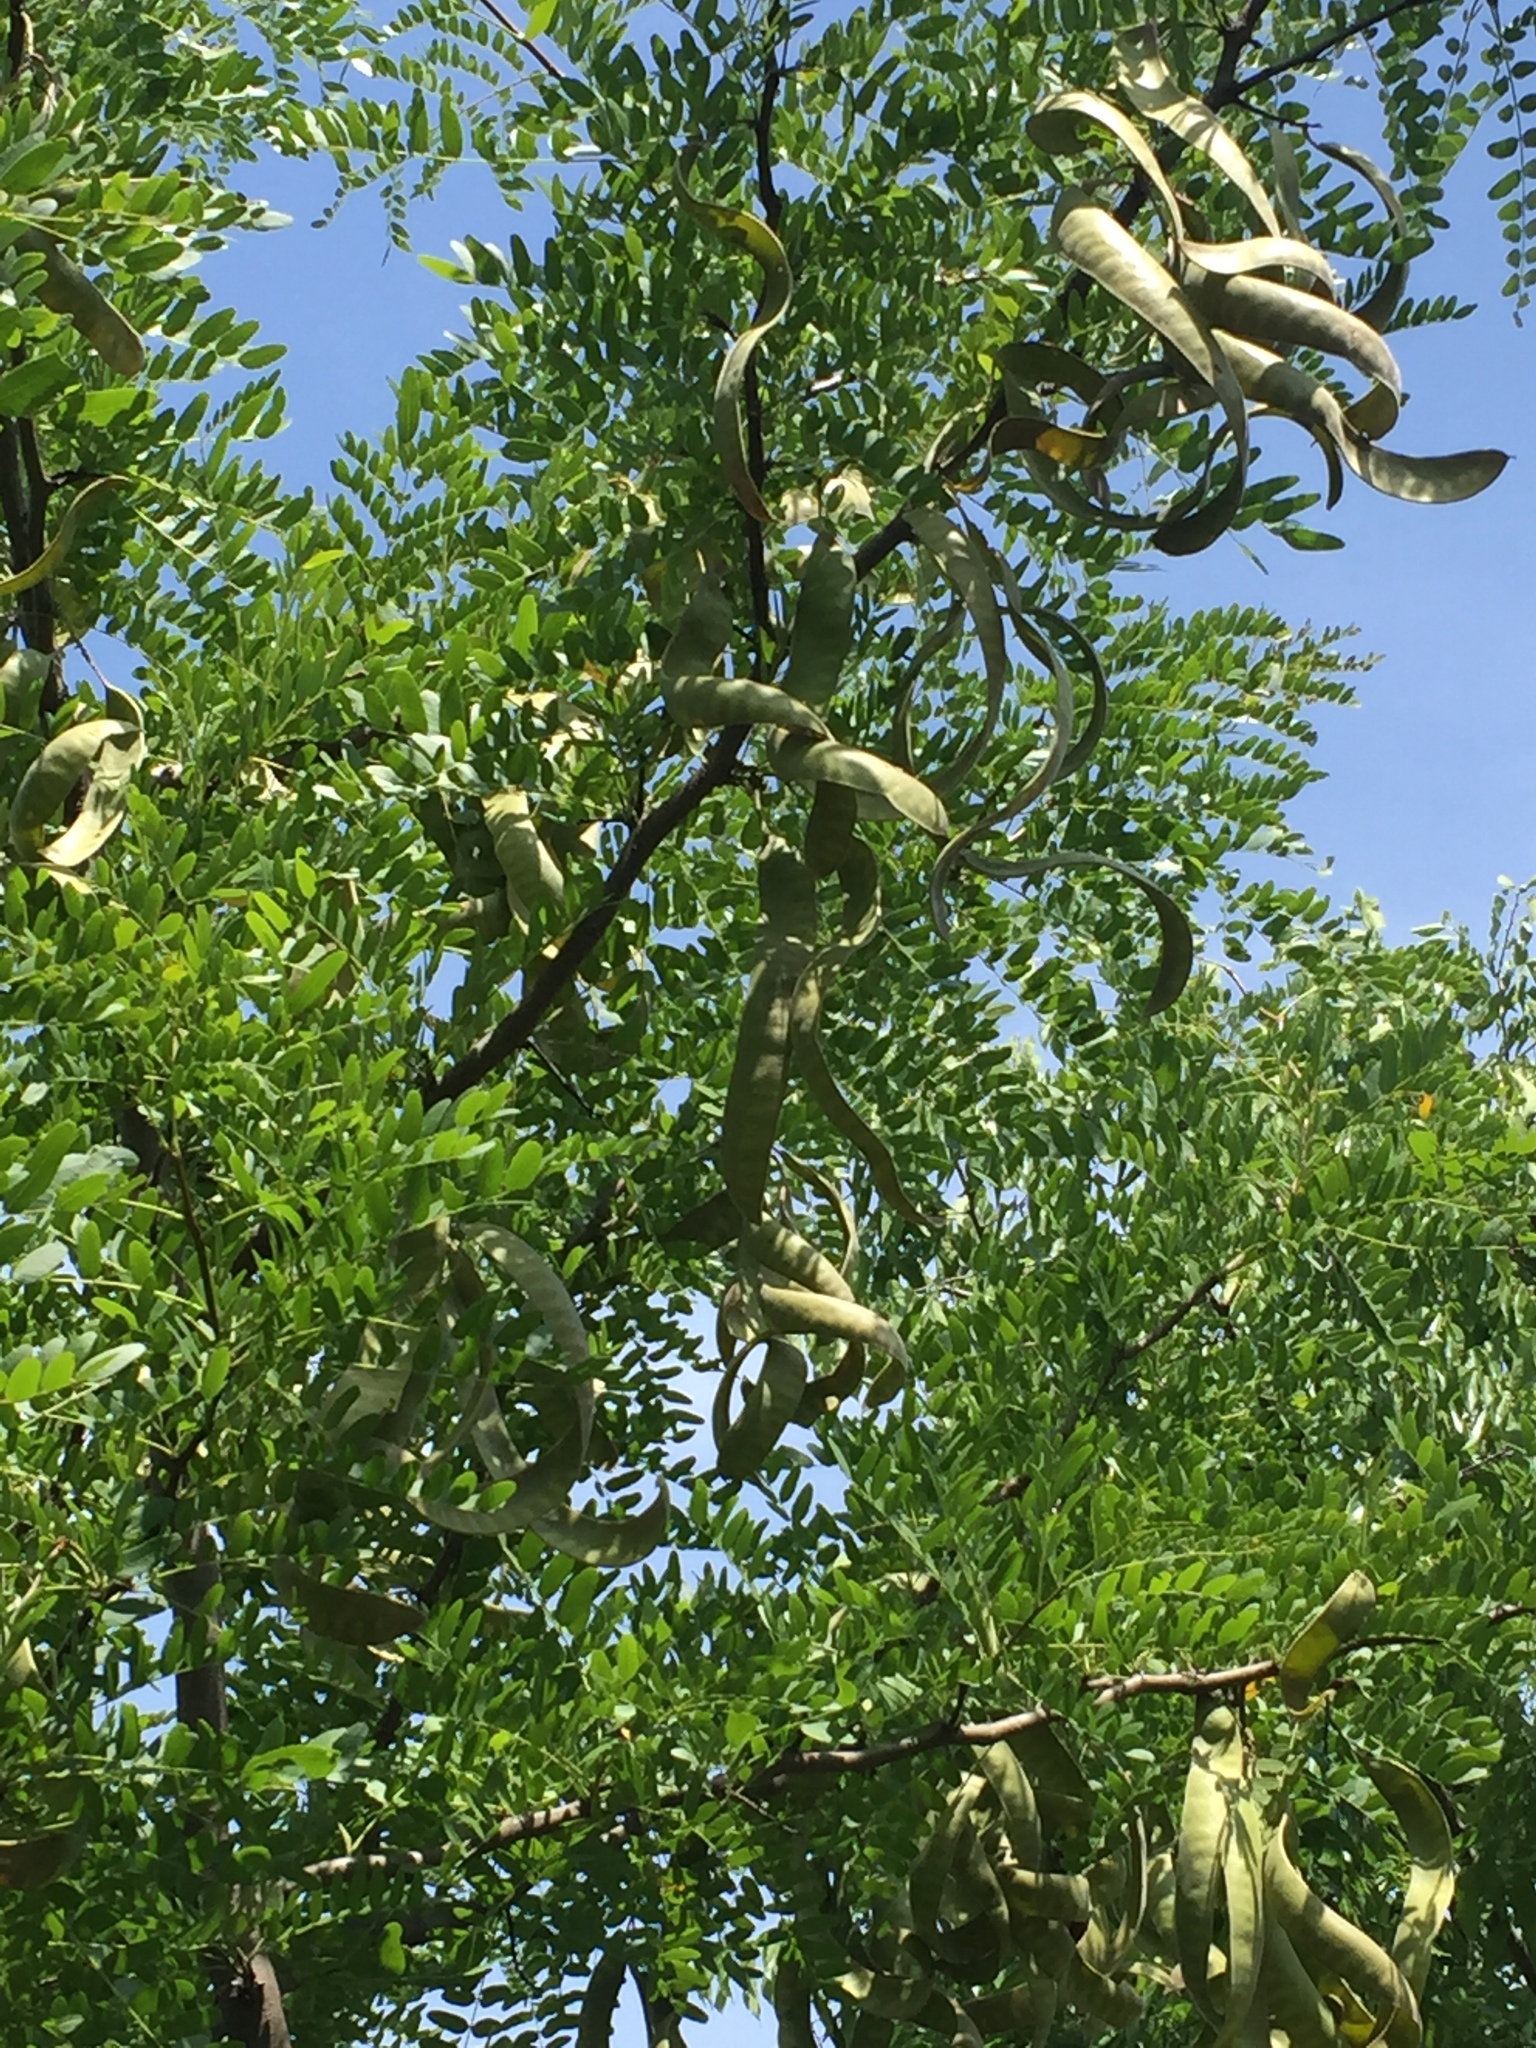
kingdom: Plantae
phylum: Tracheophyta
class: Magnoliopsida
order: Fabales
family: Fabaceae
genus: Gleditsia
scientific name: Gleditsia triacanthos
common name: Common honeylocust
